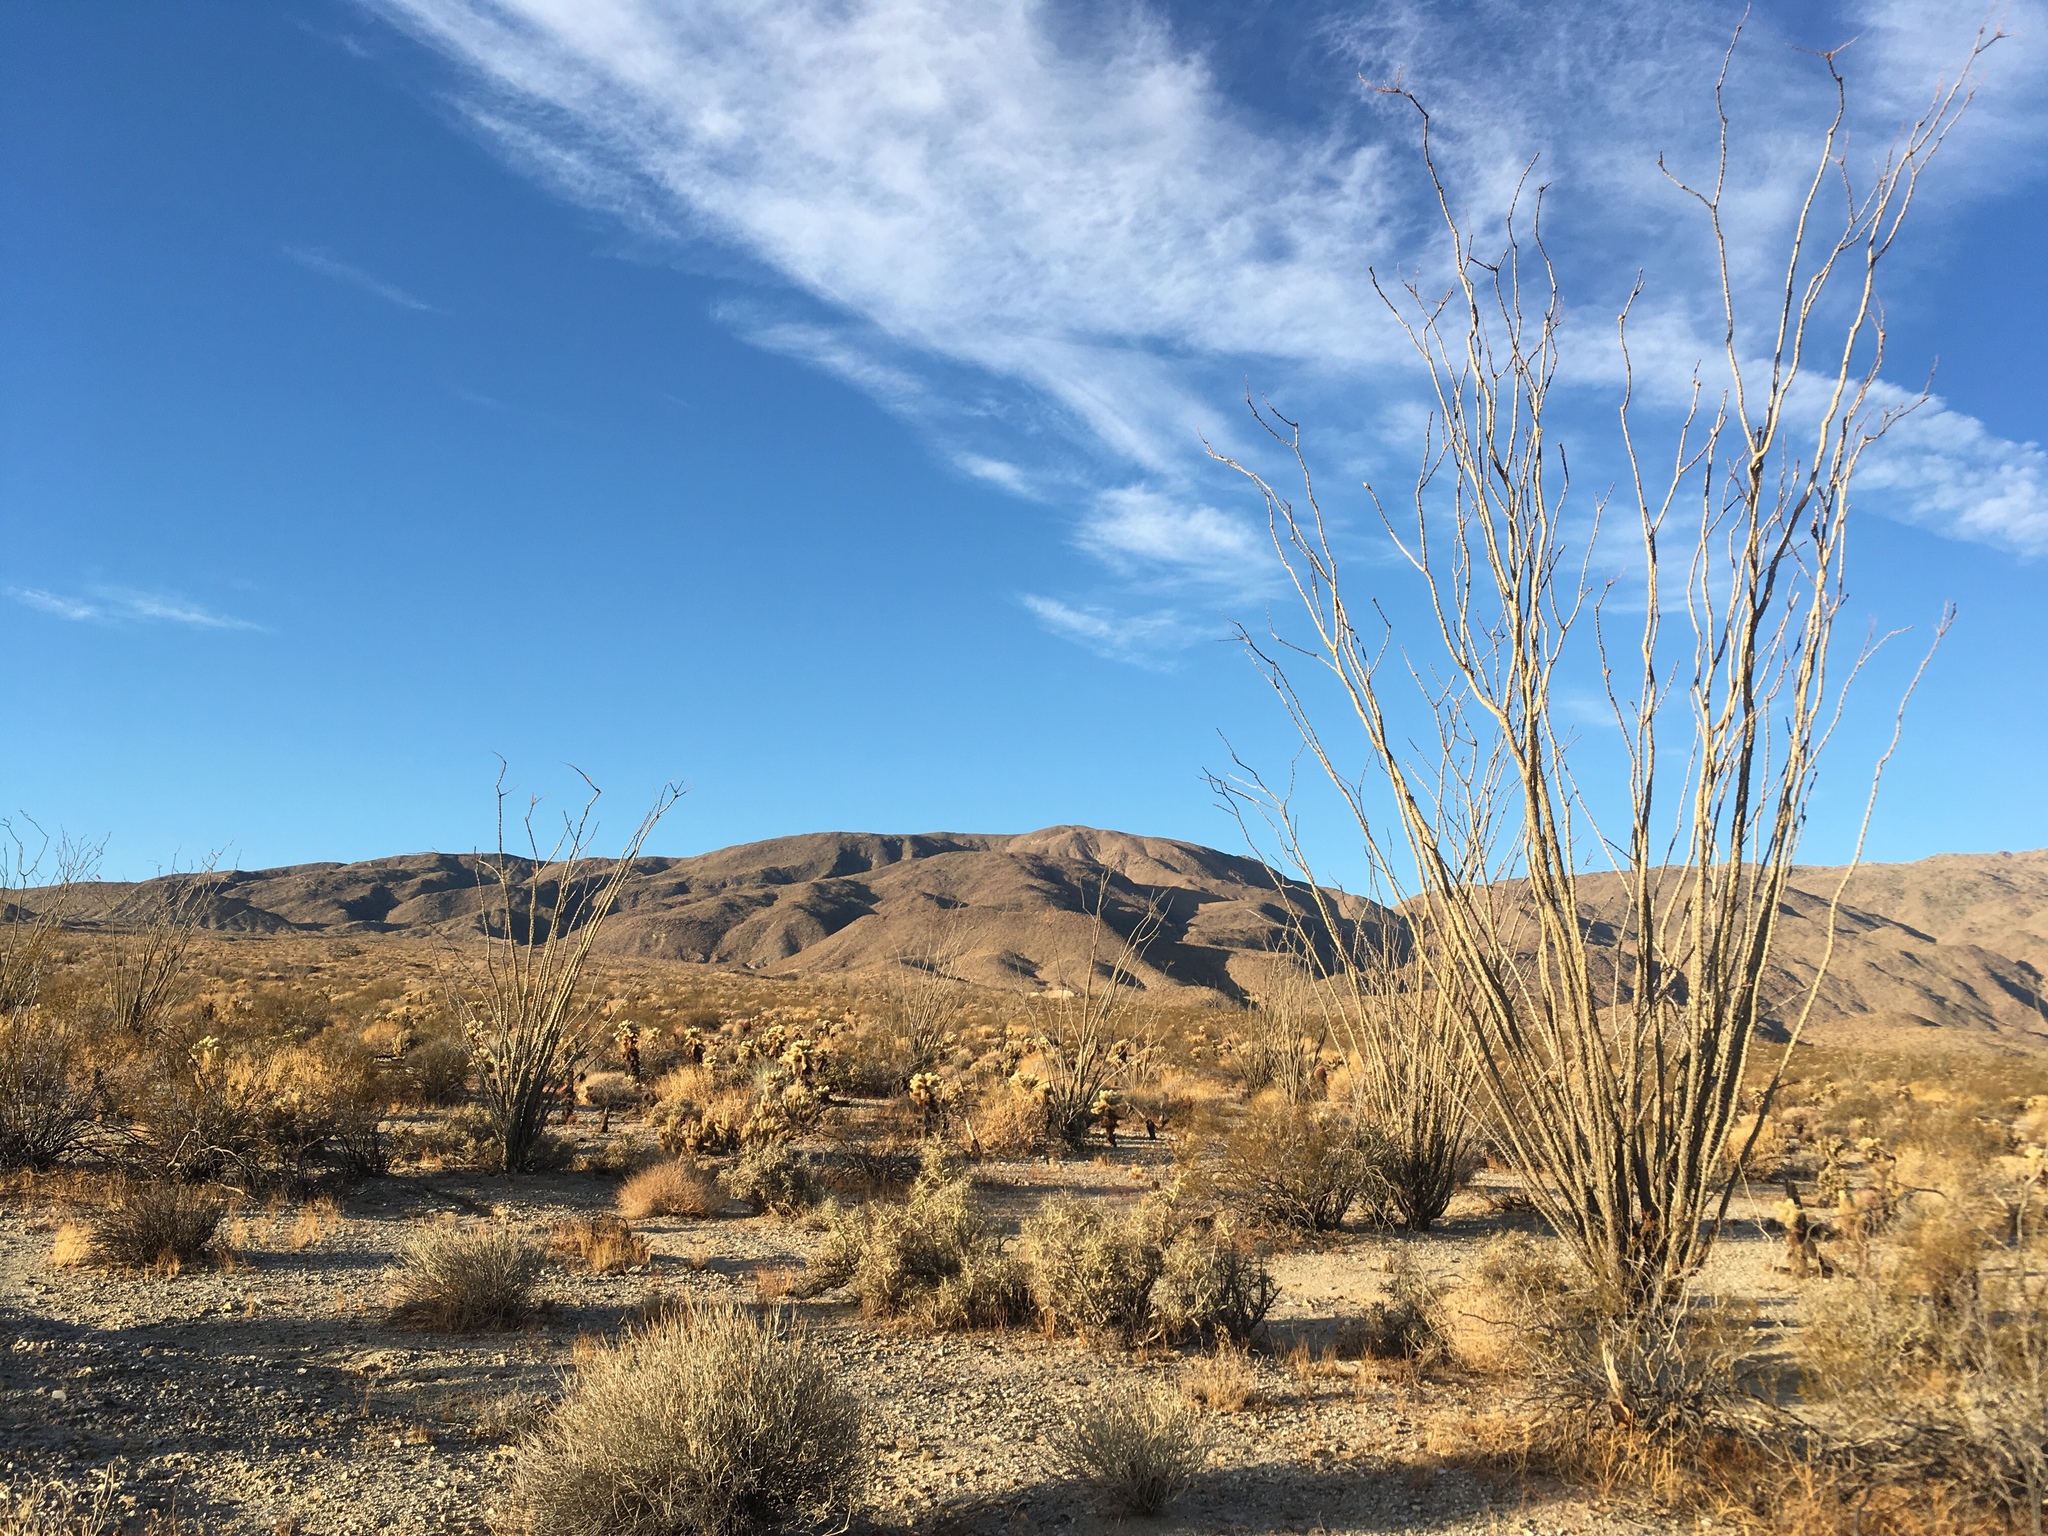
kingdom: Plantae
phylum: Tracheophyta
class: Magnoliopsida
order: Ericales
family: Fouquieriaceae
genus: Fouquieria
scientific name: Fouquieria splendens
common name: Vine-cactus
